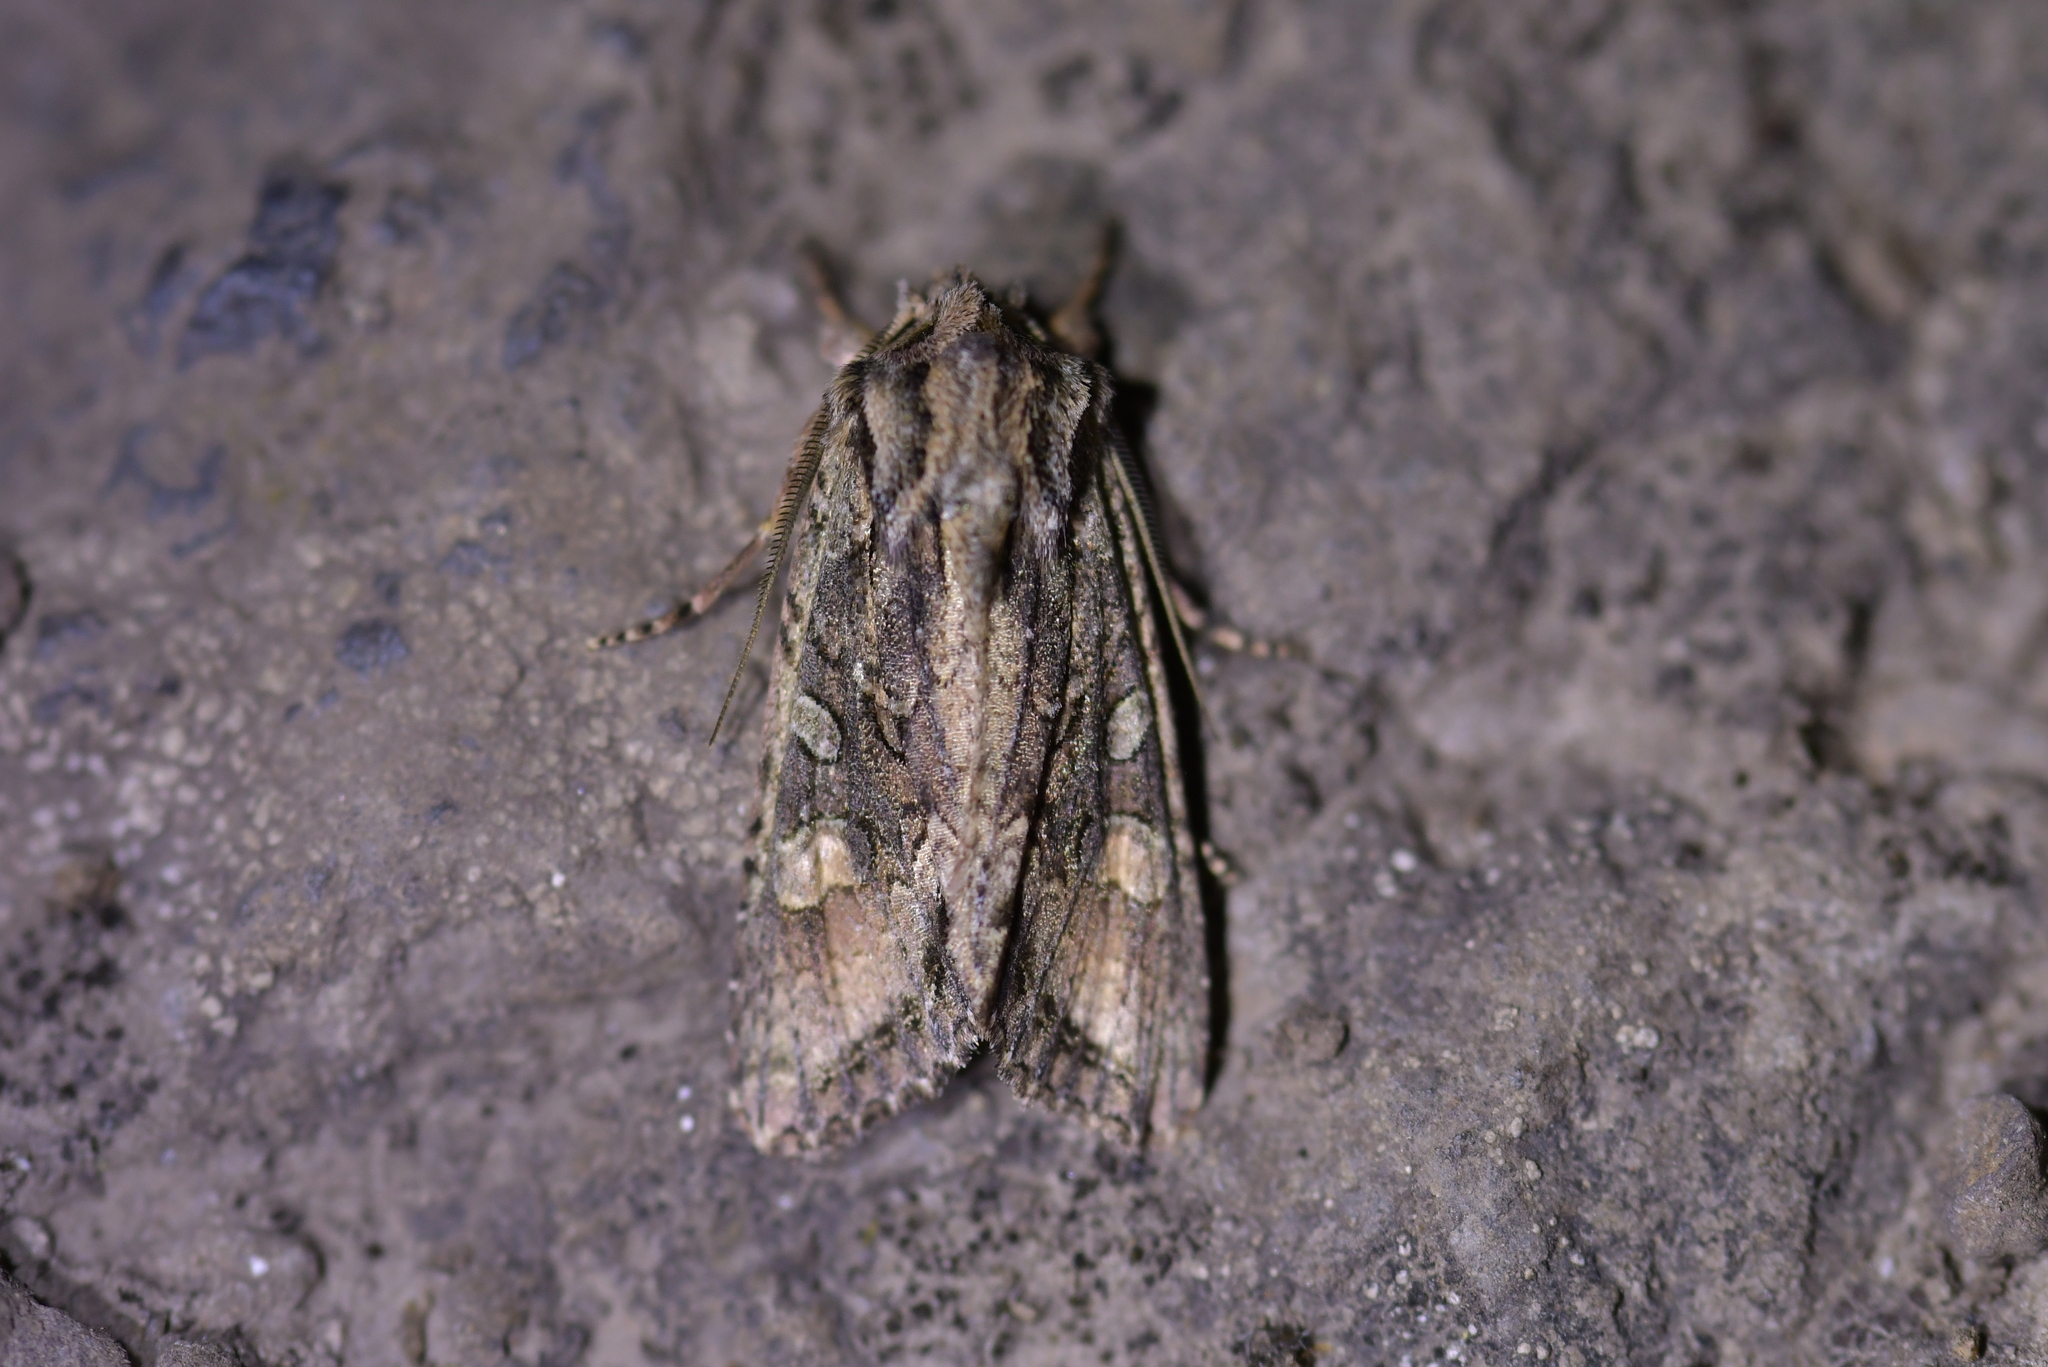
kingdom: Animalia
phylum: Arthropoda
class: Insecta
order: Lepidoptera
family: Noctuidae
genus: Ichneutica
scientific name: Ichneutica mutans
